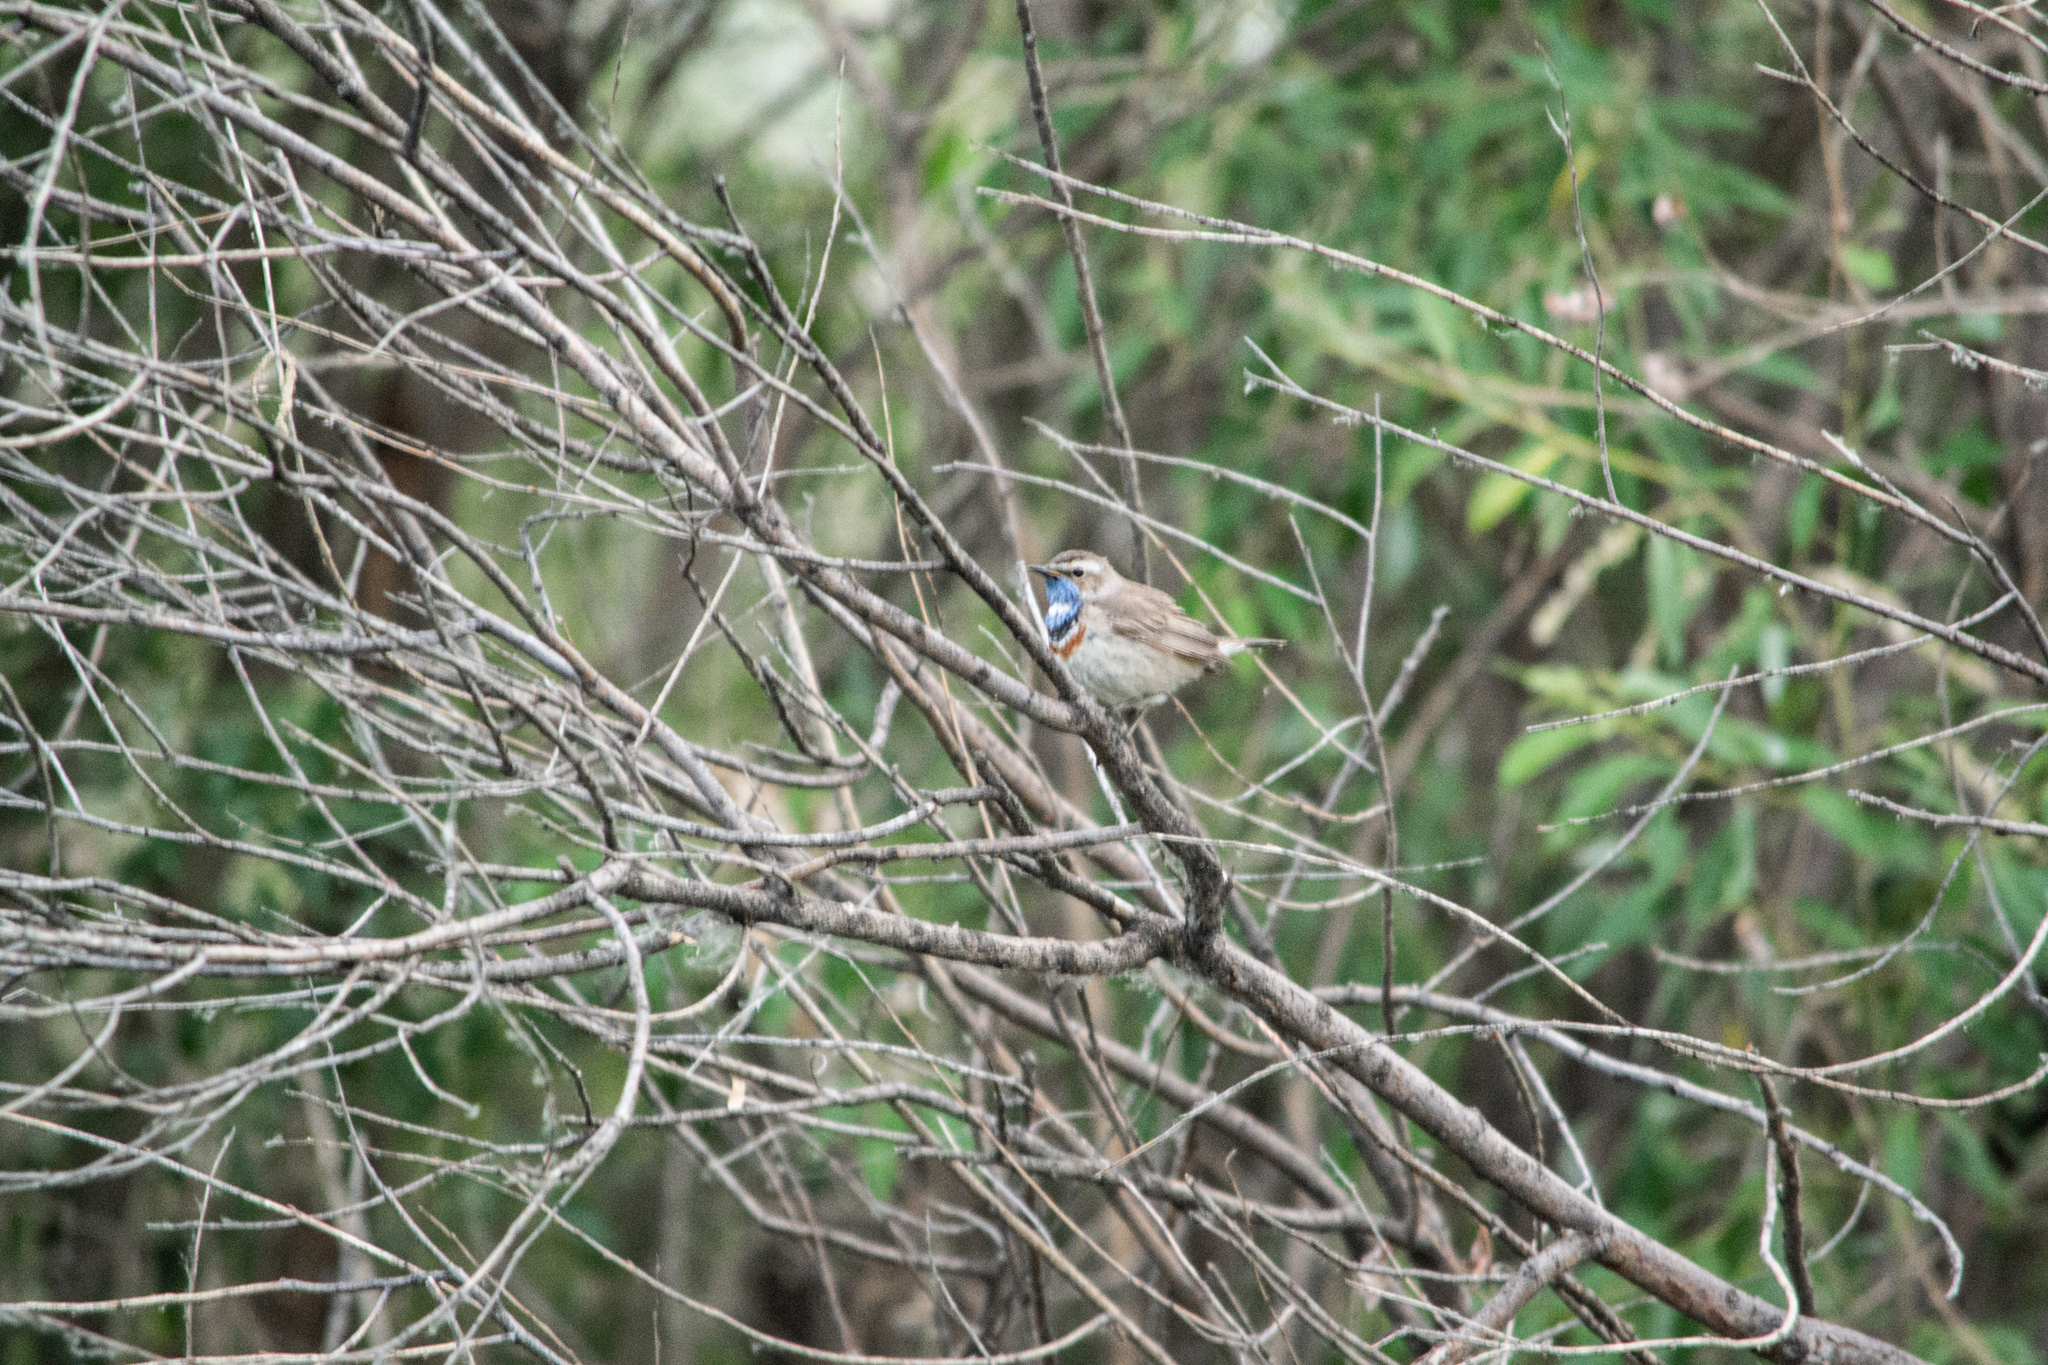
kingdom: Animalia
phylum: Chordata
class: Aves
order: Passeriformes
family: Muscicapidae
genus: Luscinia
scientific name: Luscinia svecica
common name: Bluethroat
